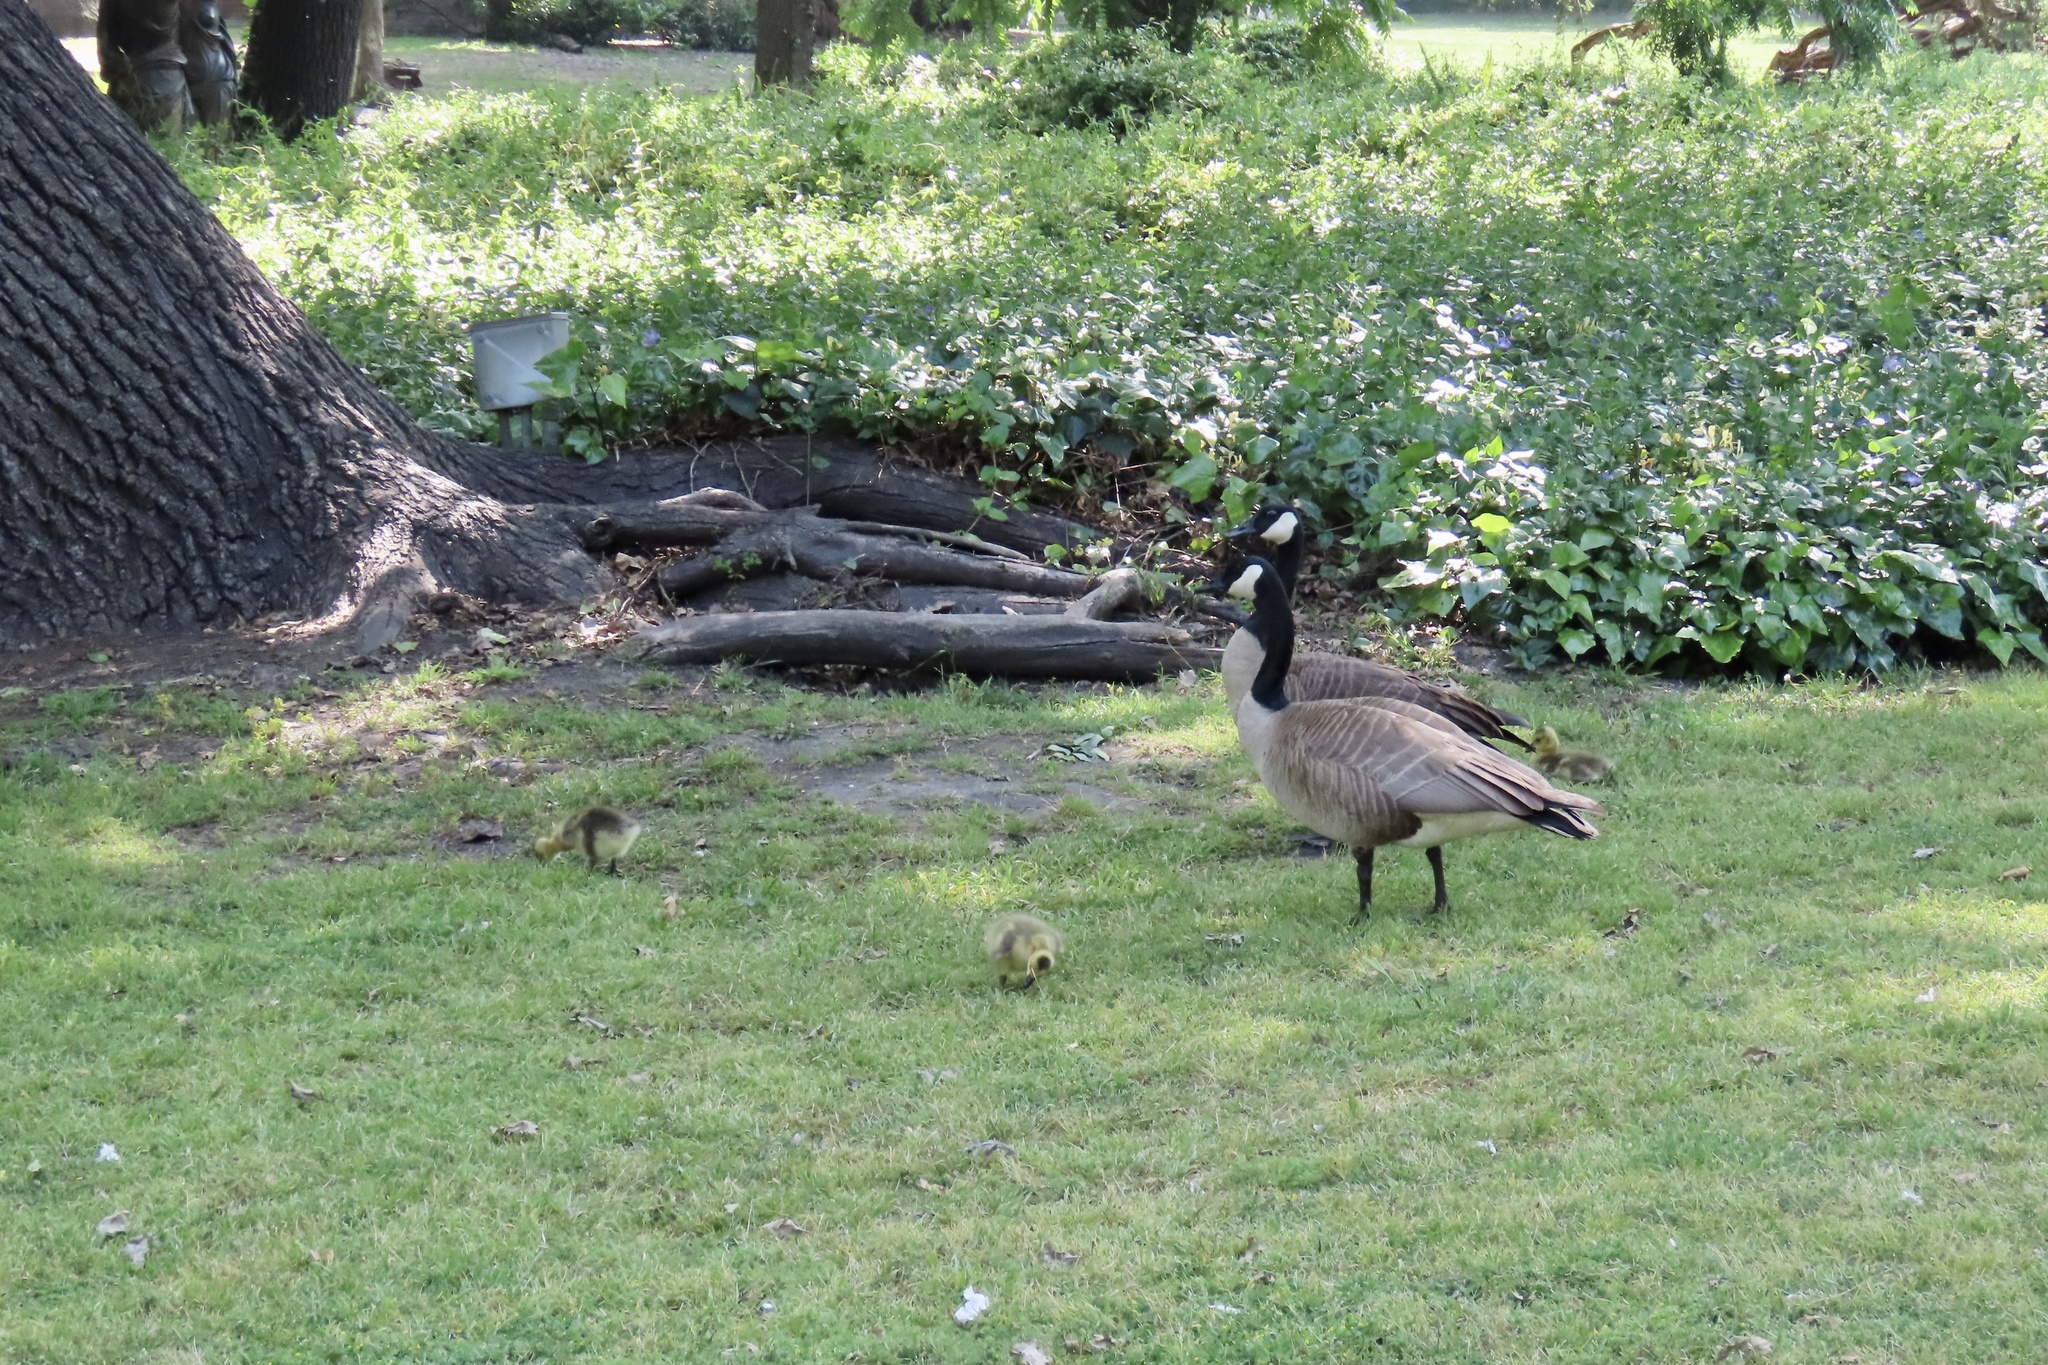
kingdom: Animalia
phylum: Chordata
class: Aves
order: Anseriformes
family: Anatidae
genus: Branta
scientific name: Branta canadensis
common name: Canada goose
